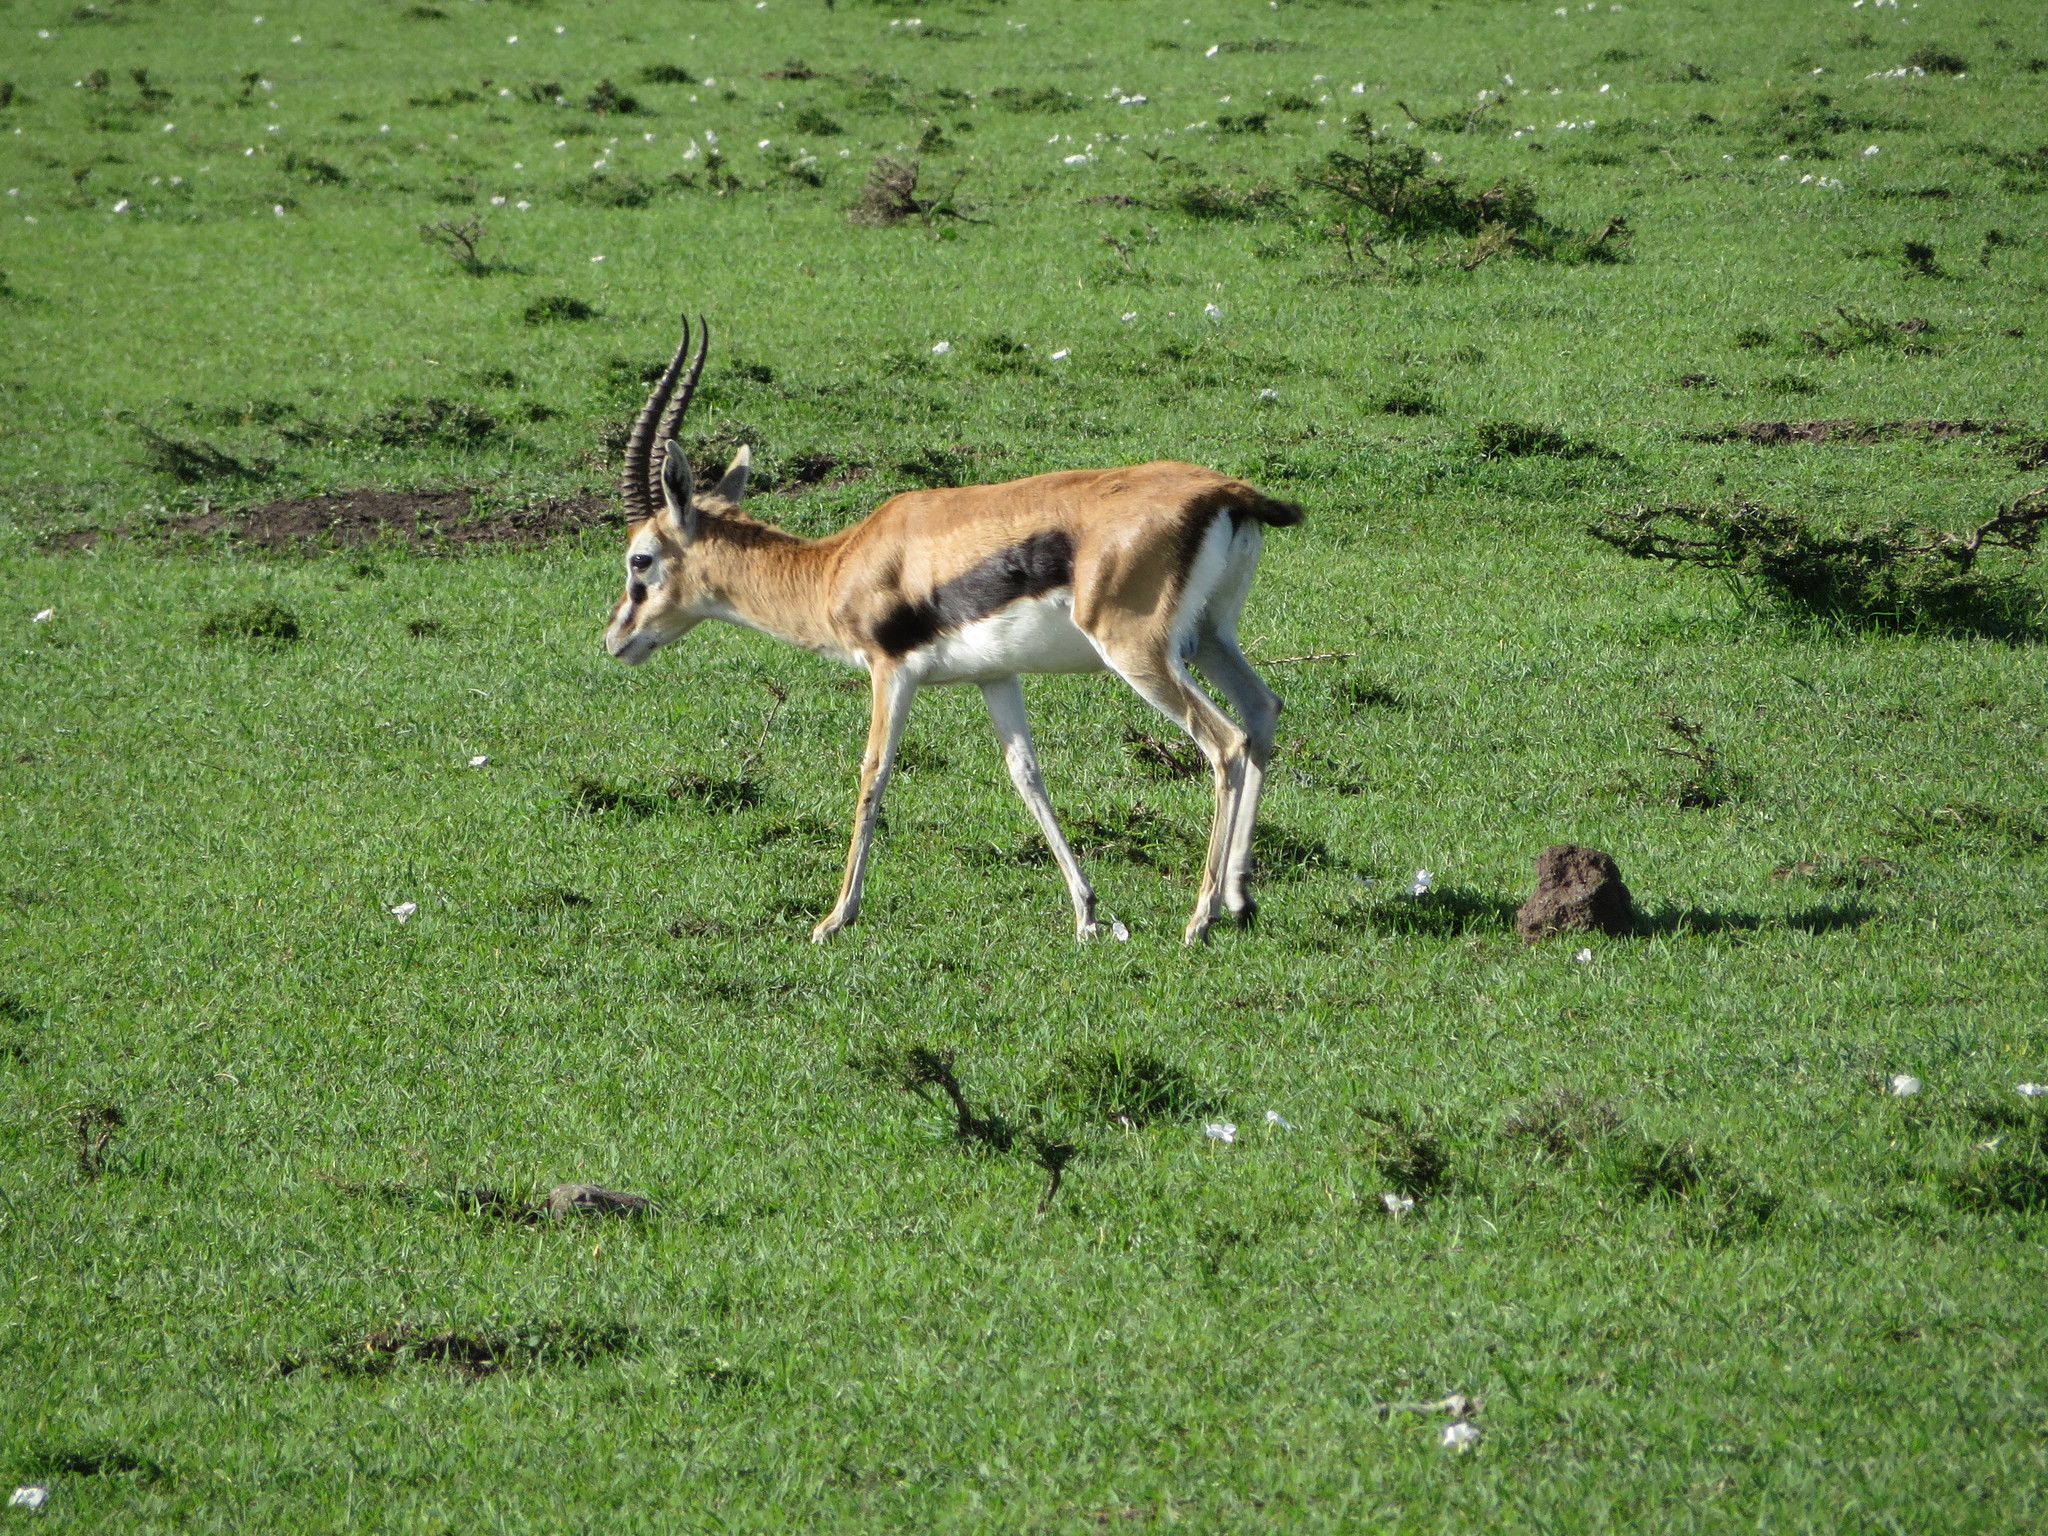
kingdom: Animalia
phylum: Chordata
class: Mammalia
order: Artiodactyla
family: Bovidae
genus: Eudorcas
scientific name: Eudorcas thomsonii
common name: Thomson's gazelle
